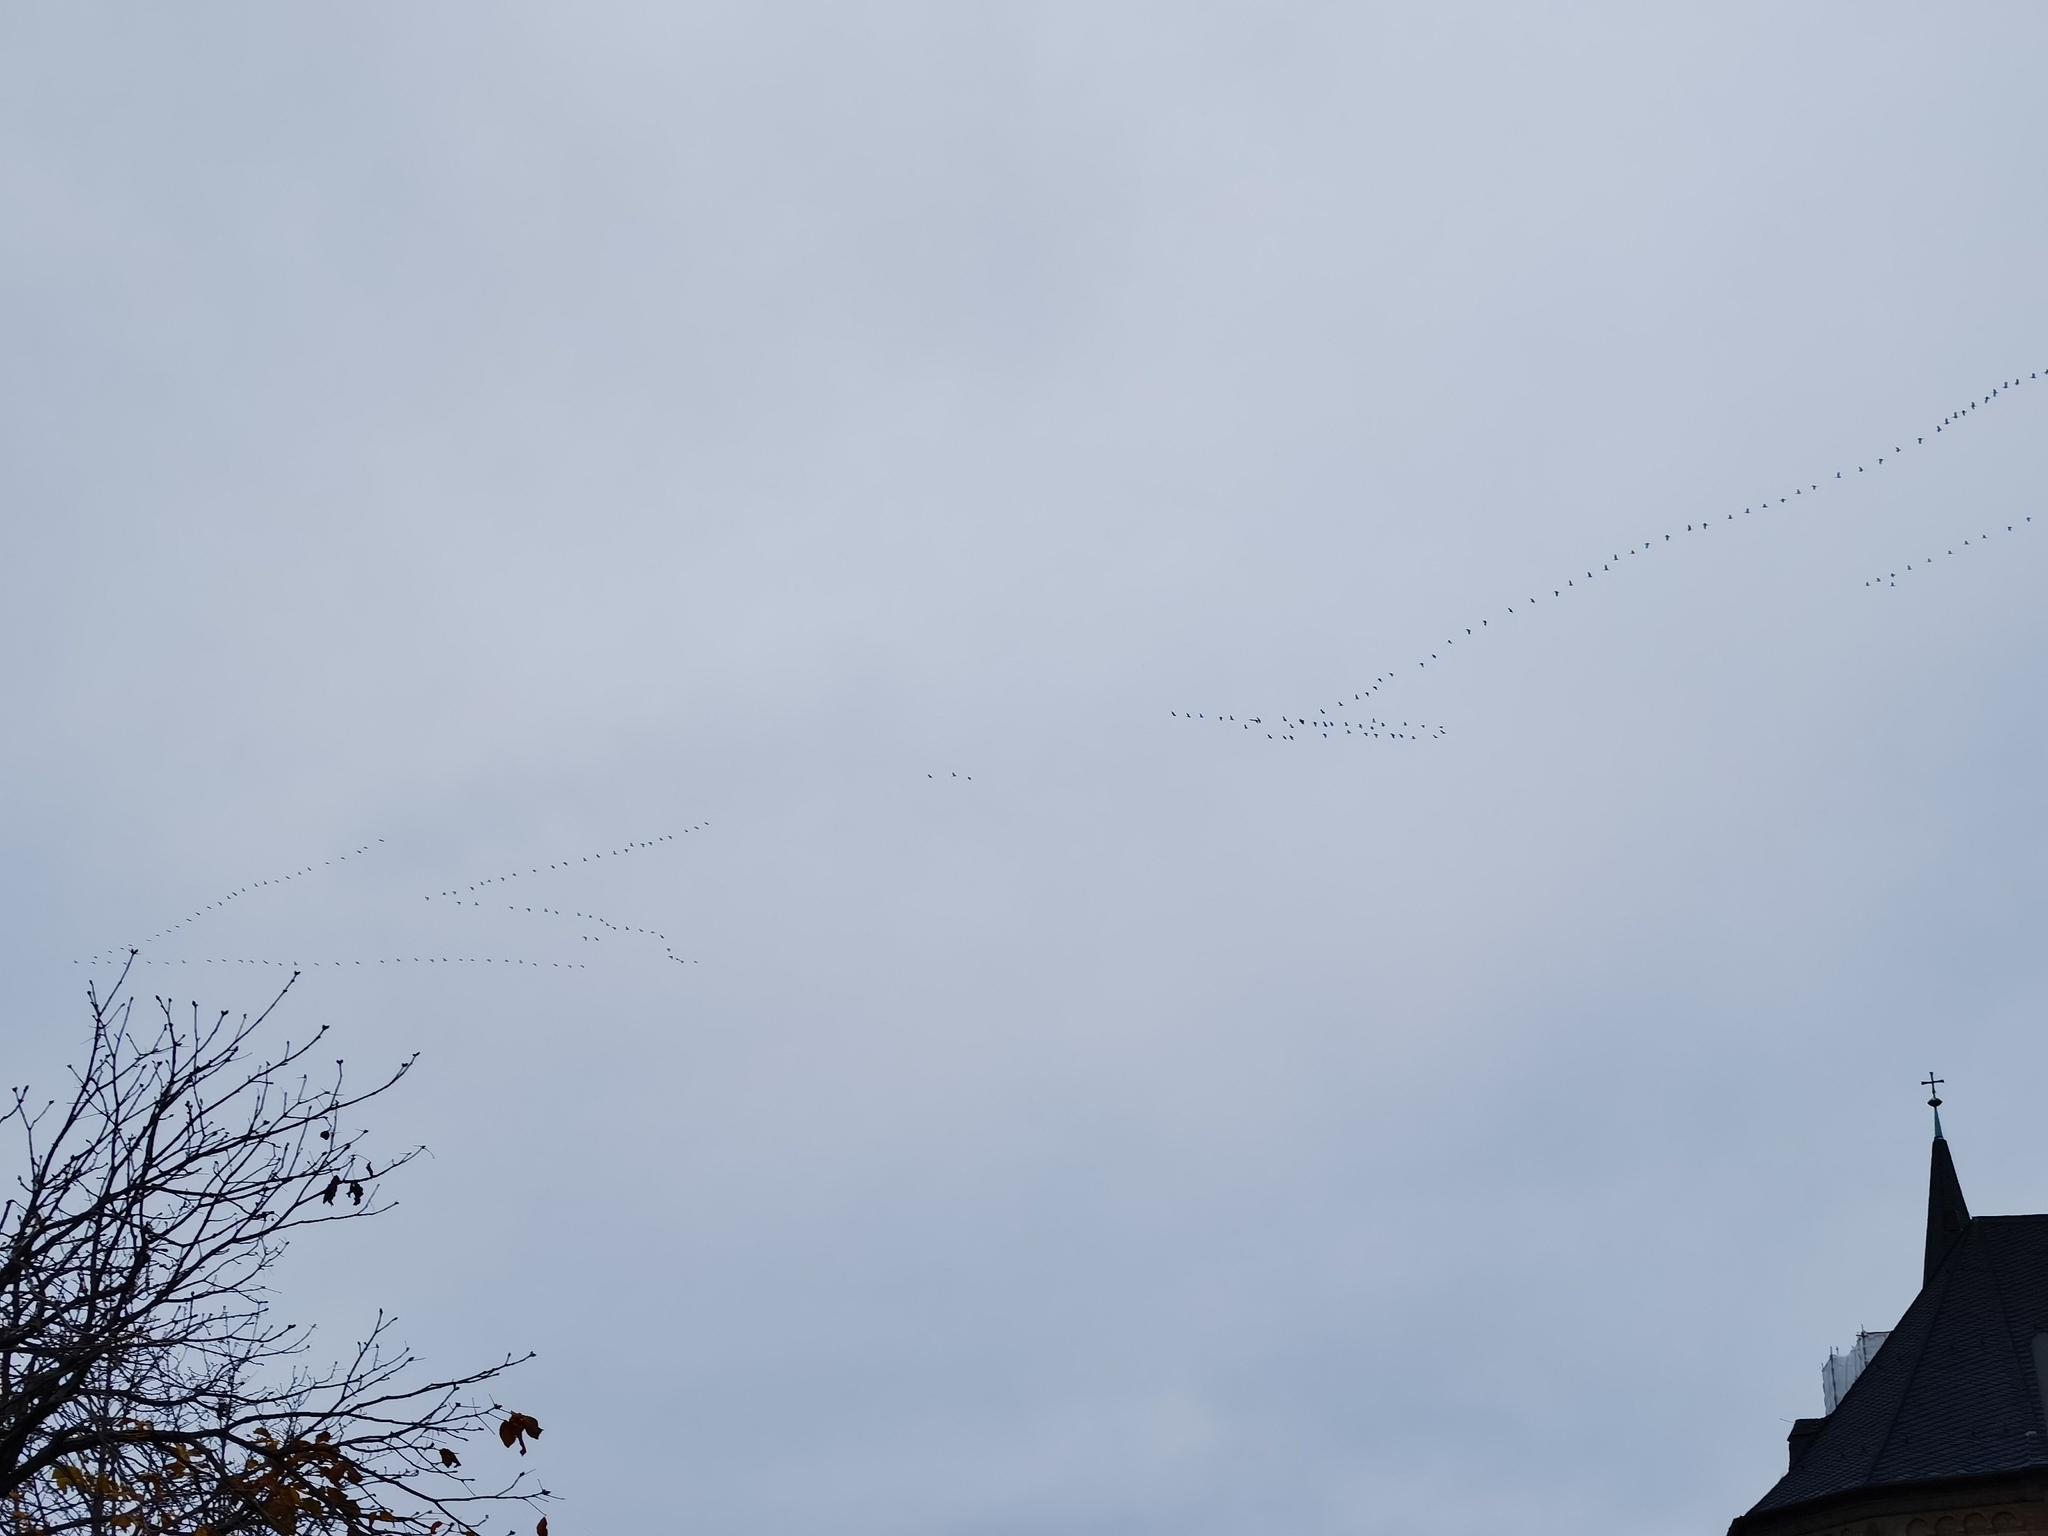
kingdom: Animalia
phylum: Chordata
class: Aves
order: Gruiformes
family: Gruidae
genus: Grus
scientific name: Grus grus
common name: Common crane
